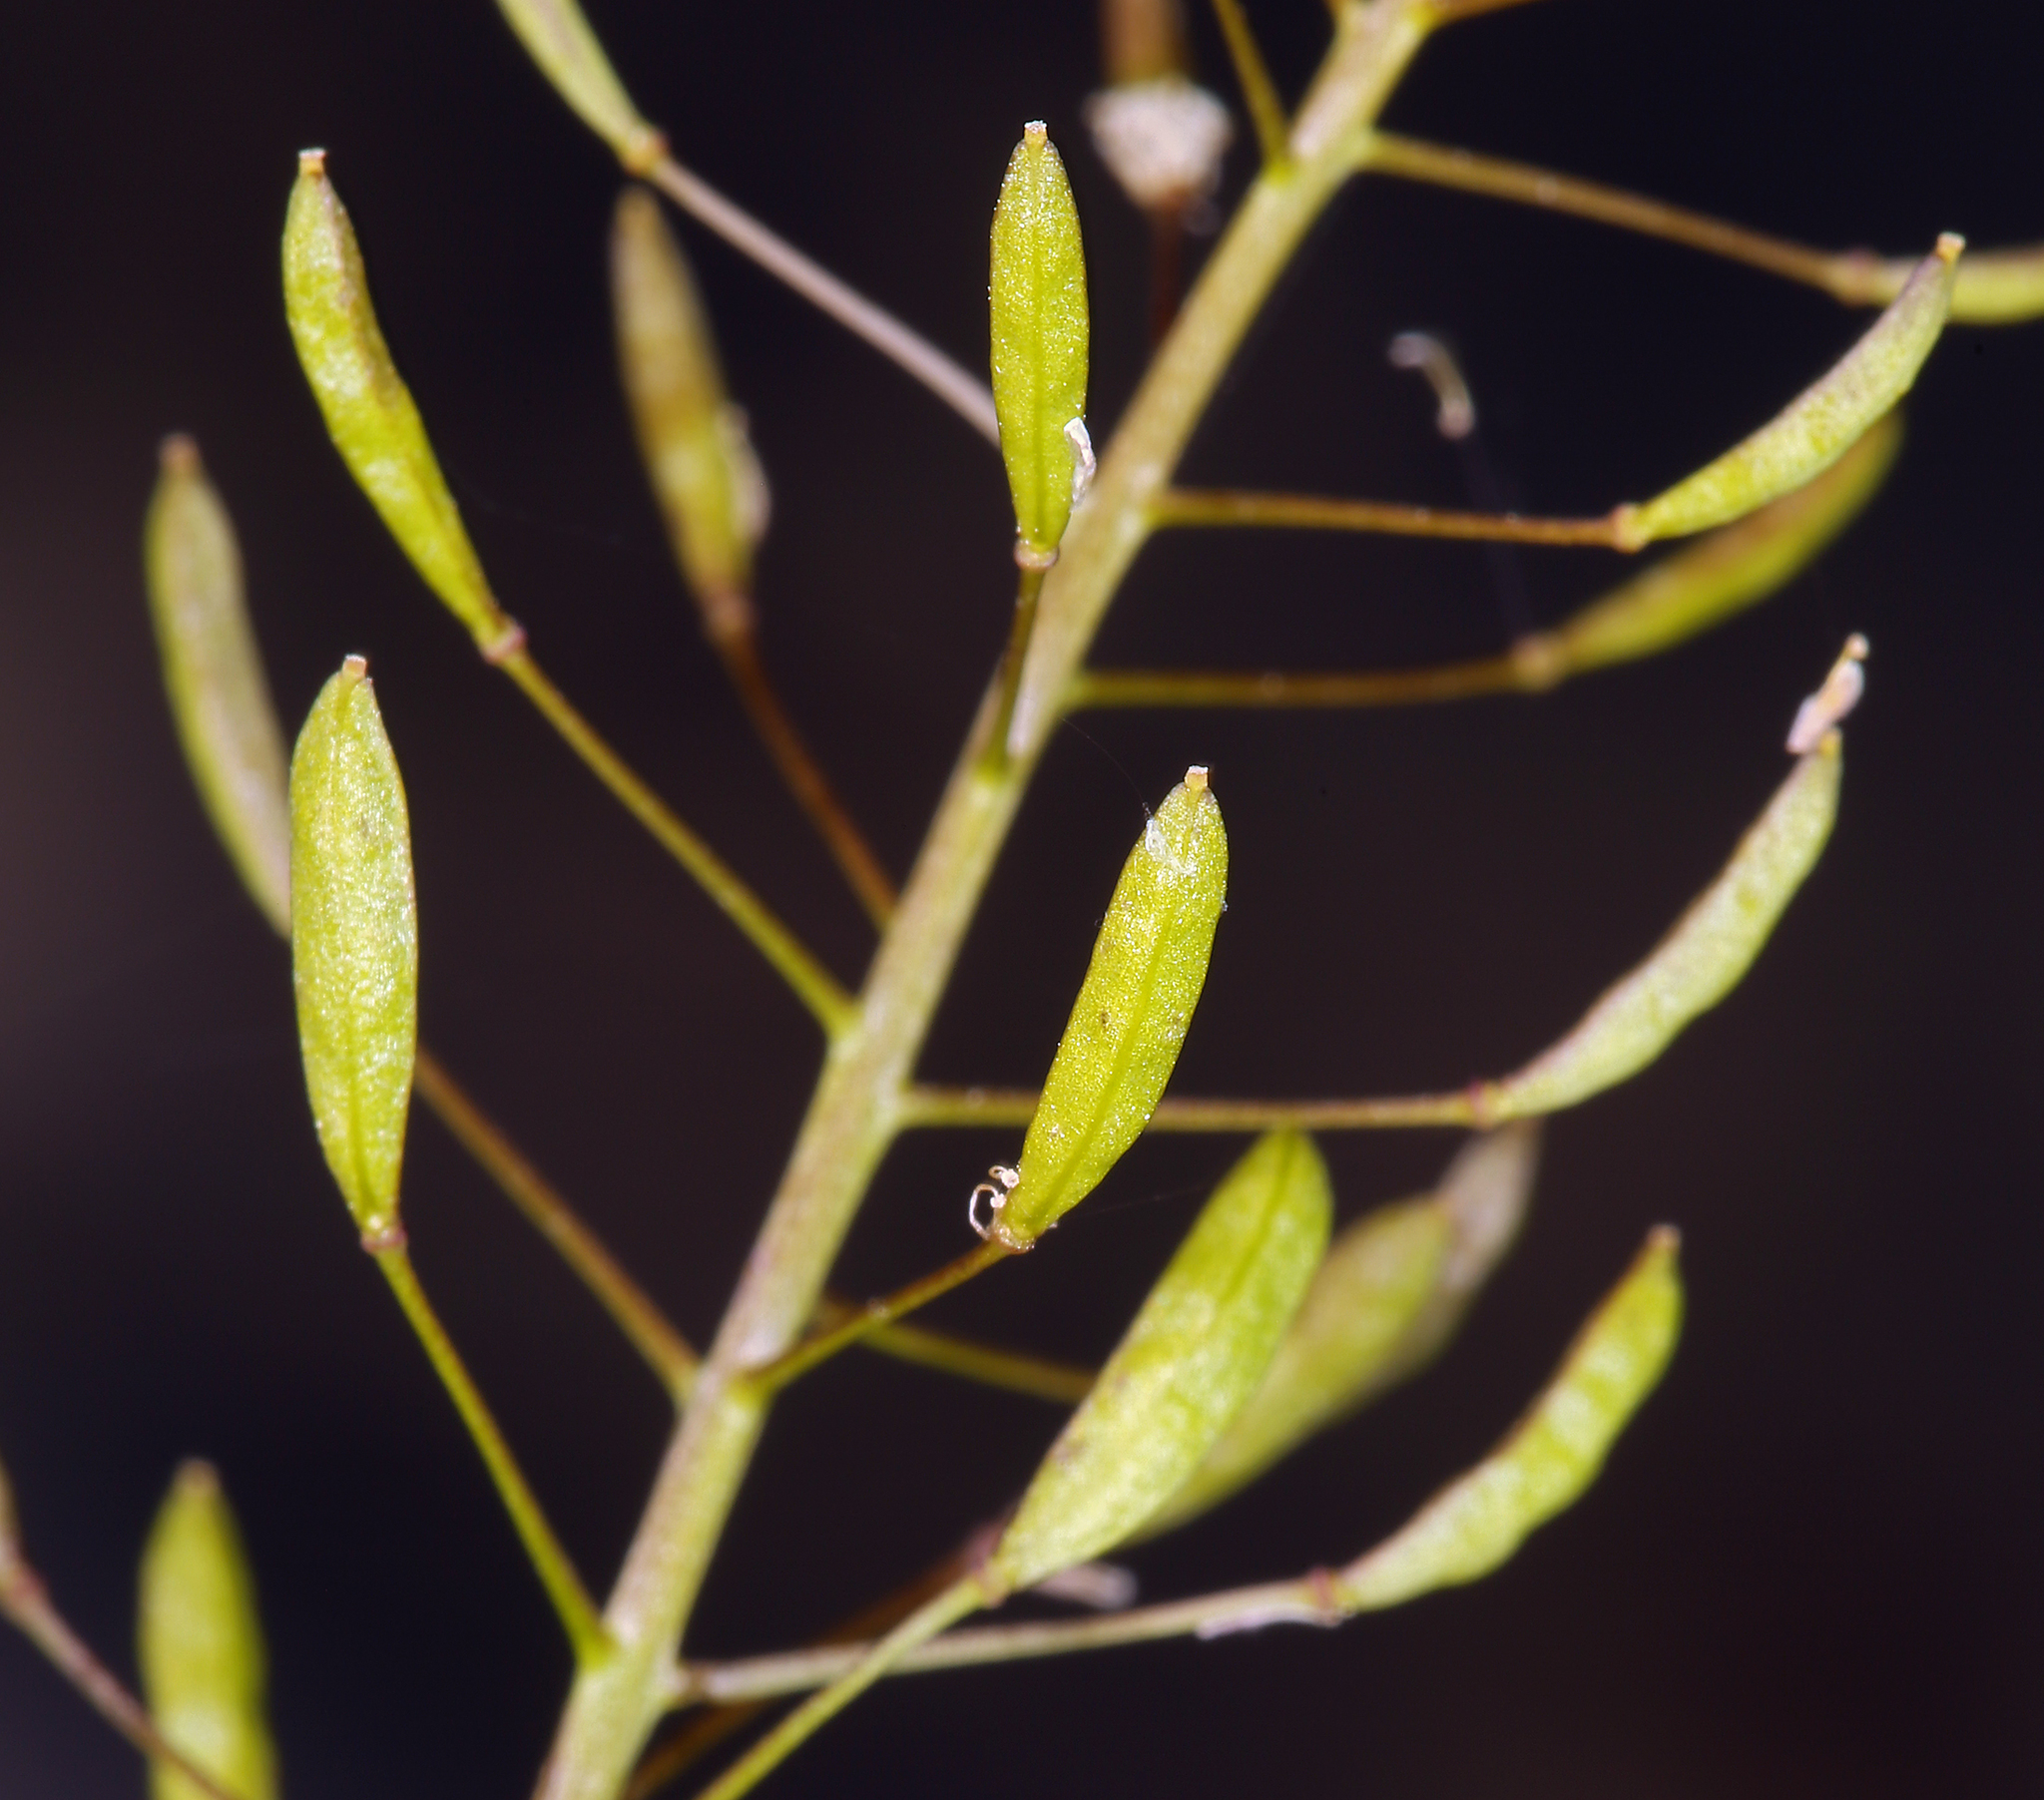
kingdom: Plantae
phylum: Tracheophyta
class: Magnoliopsida
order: Brassicales
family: Brassicaceae
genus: Descurainia
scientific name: Descurainia pinnata
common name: Western tansy mustard
